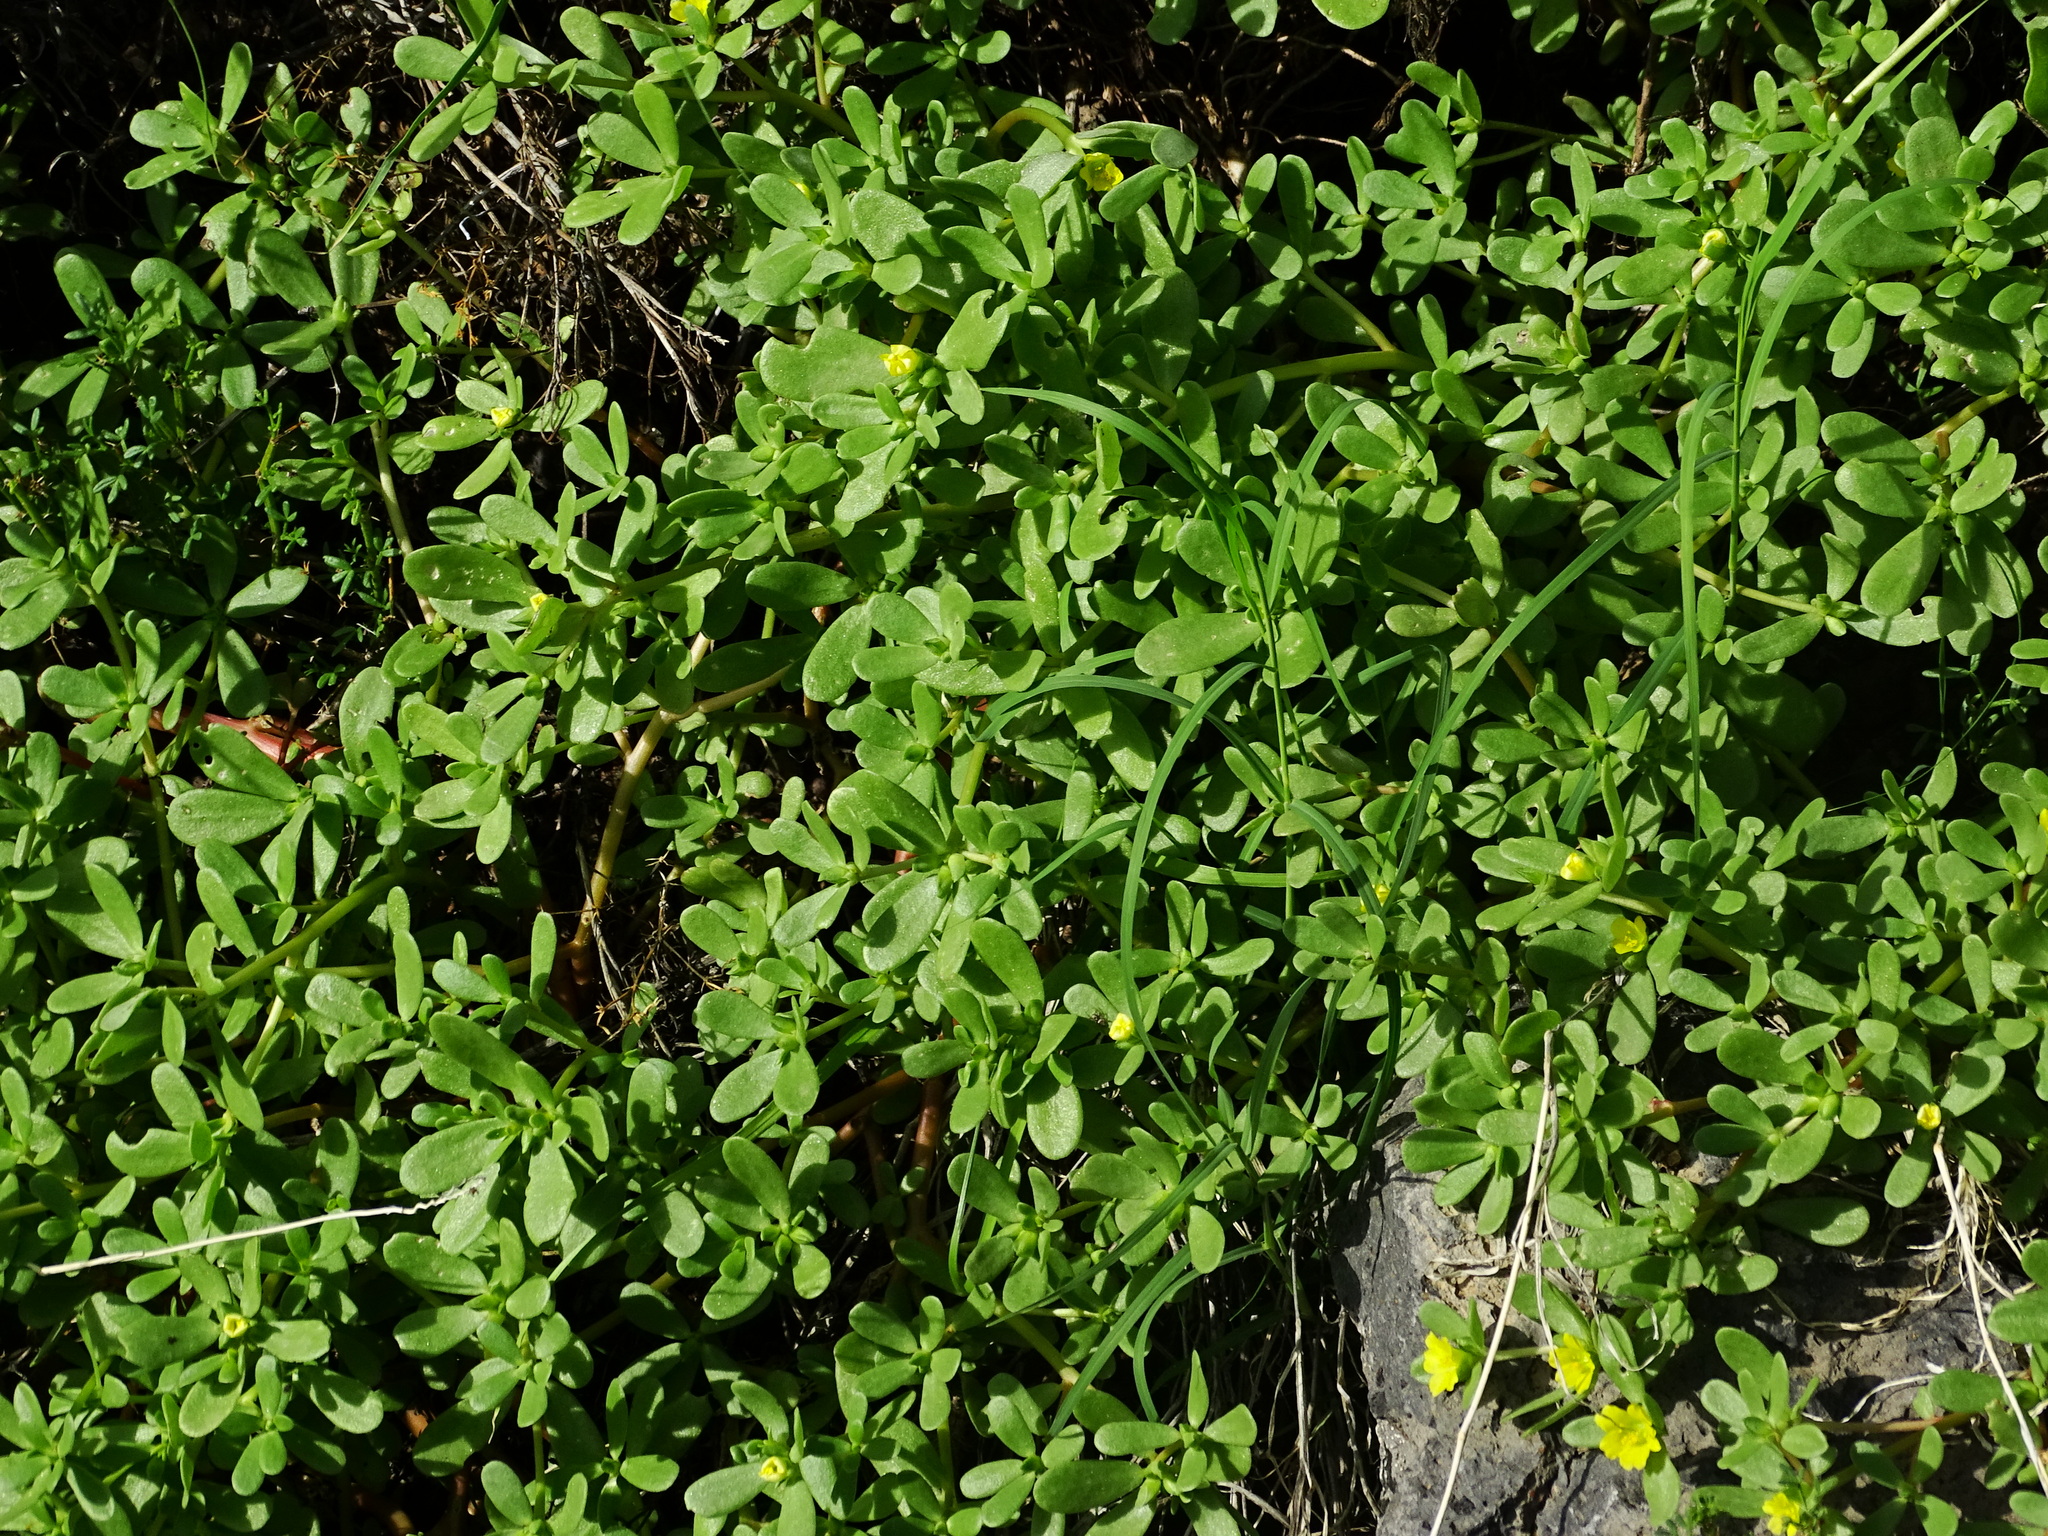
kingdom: Plantae
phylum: Tracheophyta
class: Magnoliopsida
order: Caryophyllales
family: Portulacaceae
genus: Portulaca
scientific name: Portulaca oleracea
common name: Common purslane
